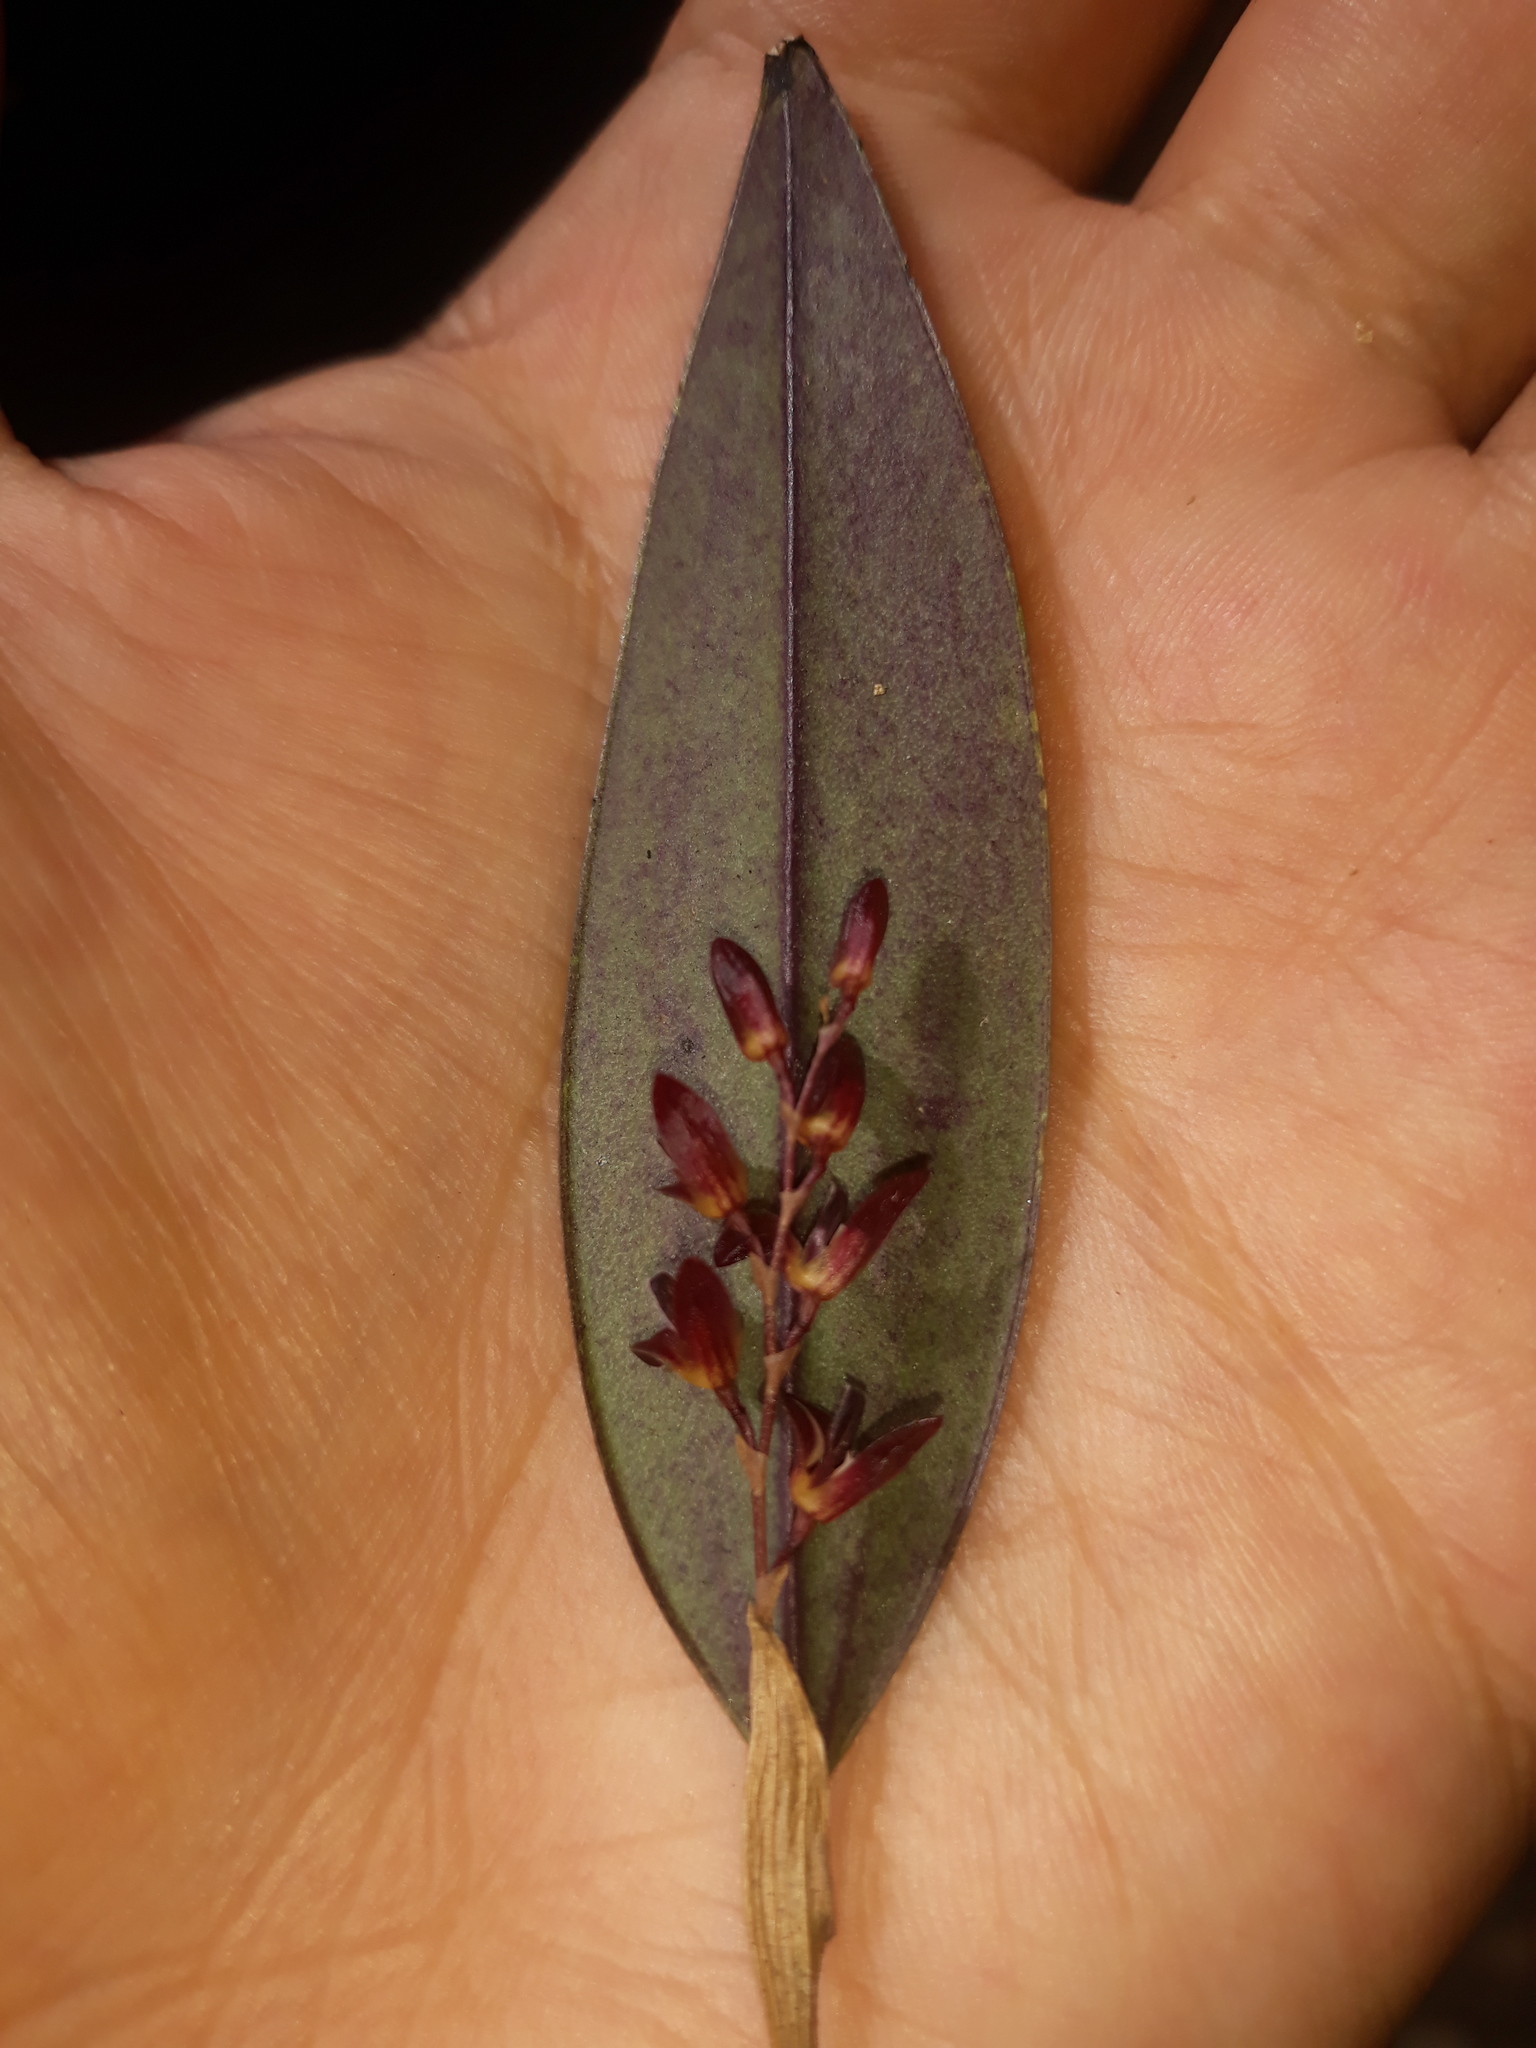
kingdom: Plantae
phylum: Tracheophyta
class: Liliopsida
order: Asparagales
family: Orchidaceae
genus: Trichosalpinx
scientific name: Trichosalpinx blaisdellii
